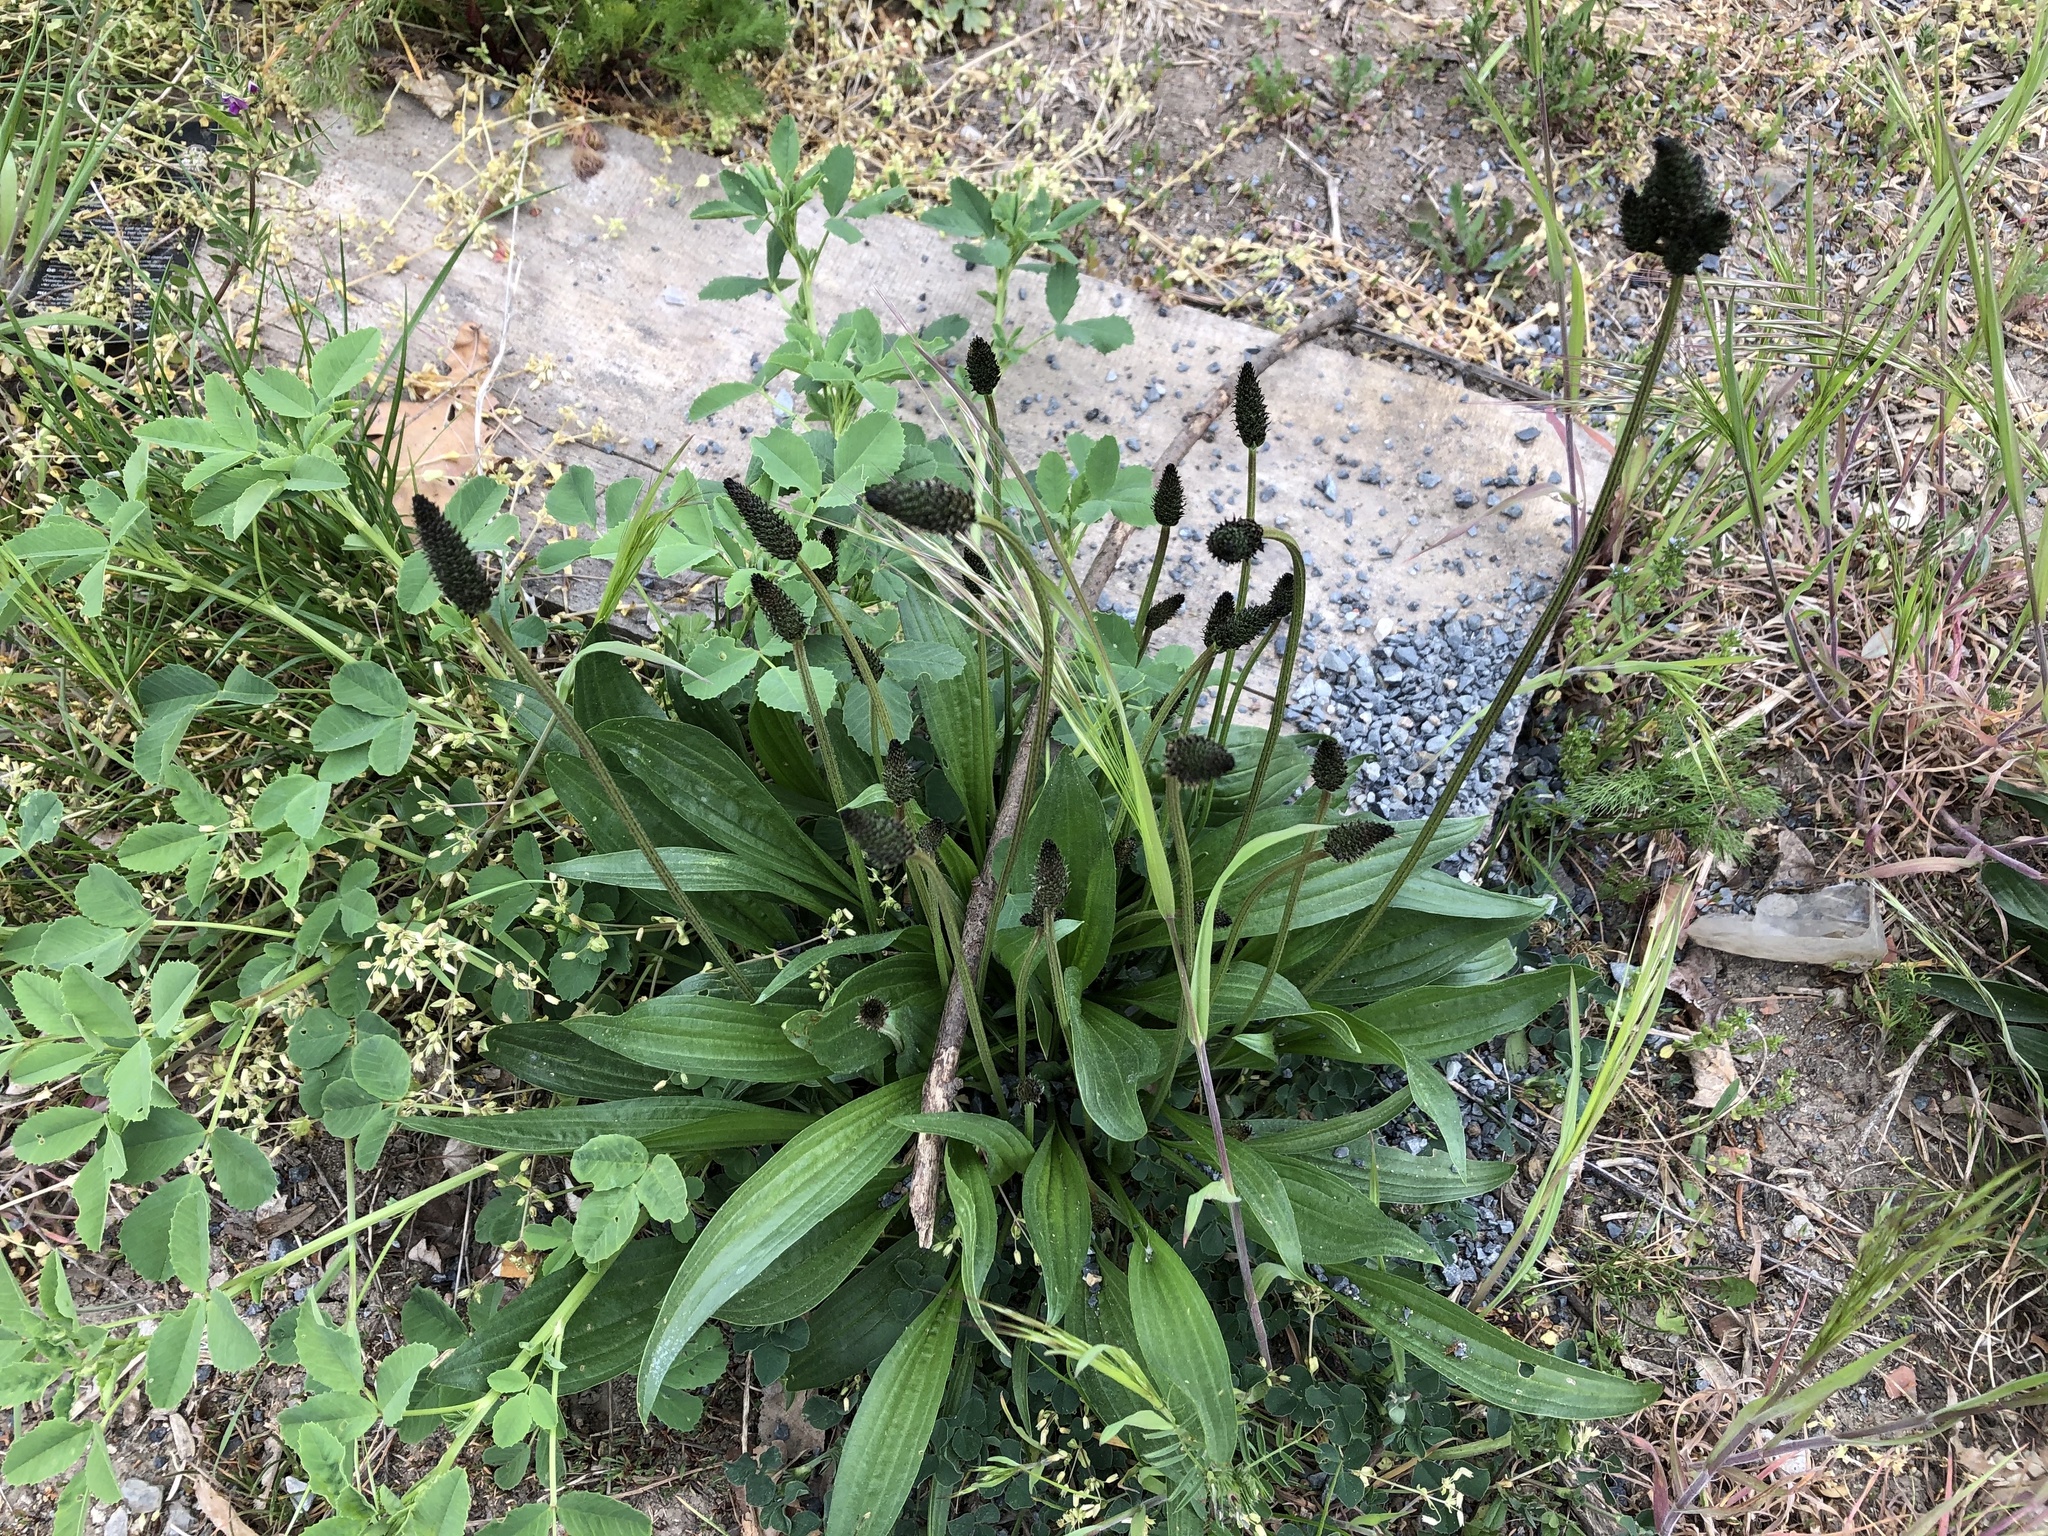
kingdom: Plantae
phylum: Tracheophyta
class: Magnoliopsida
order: Lamiales
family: Plantaginaceae
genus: Plantago
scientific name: Plantago lanceolata
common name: Ribwort plantain
